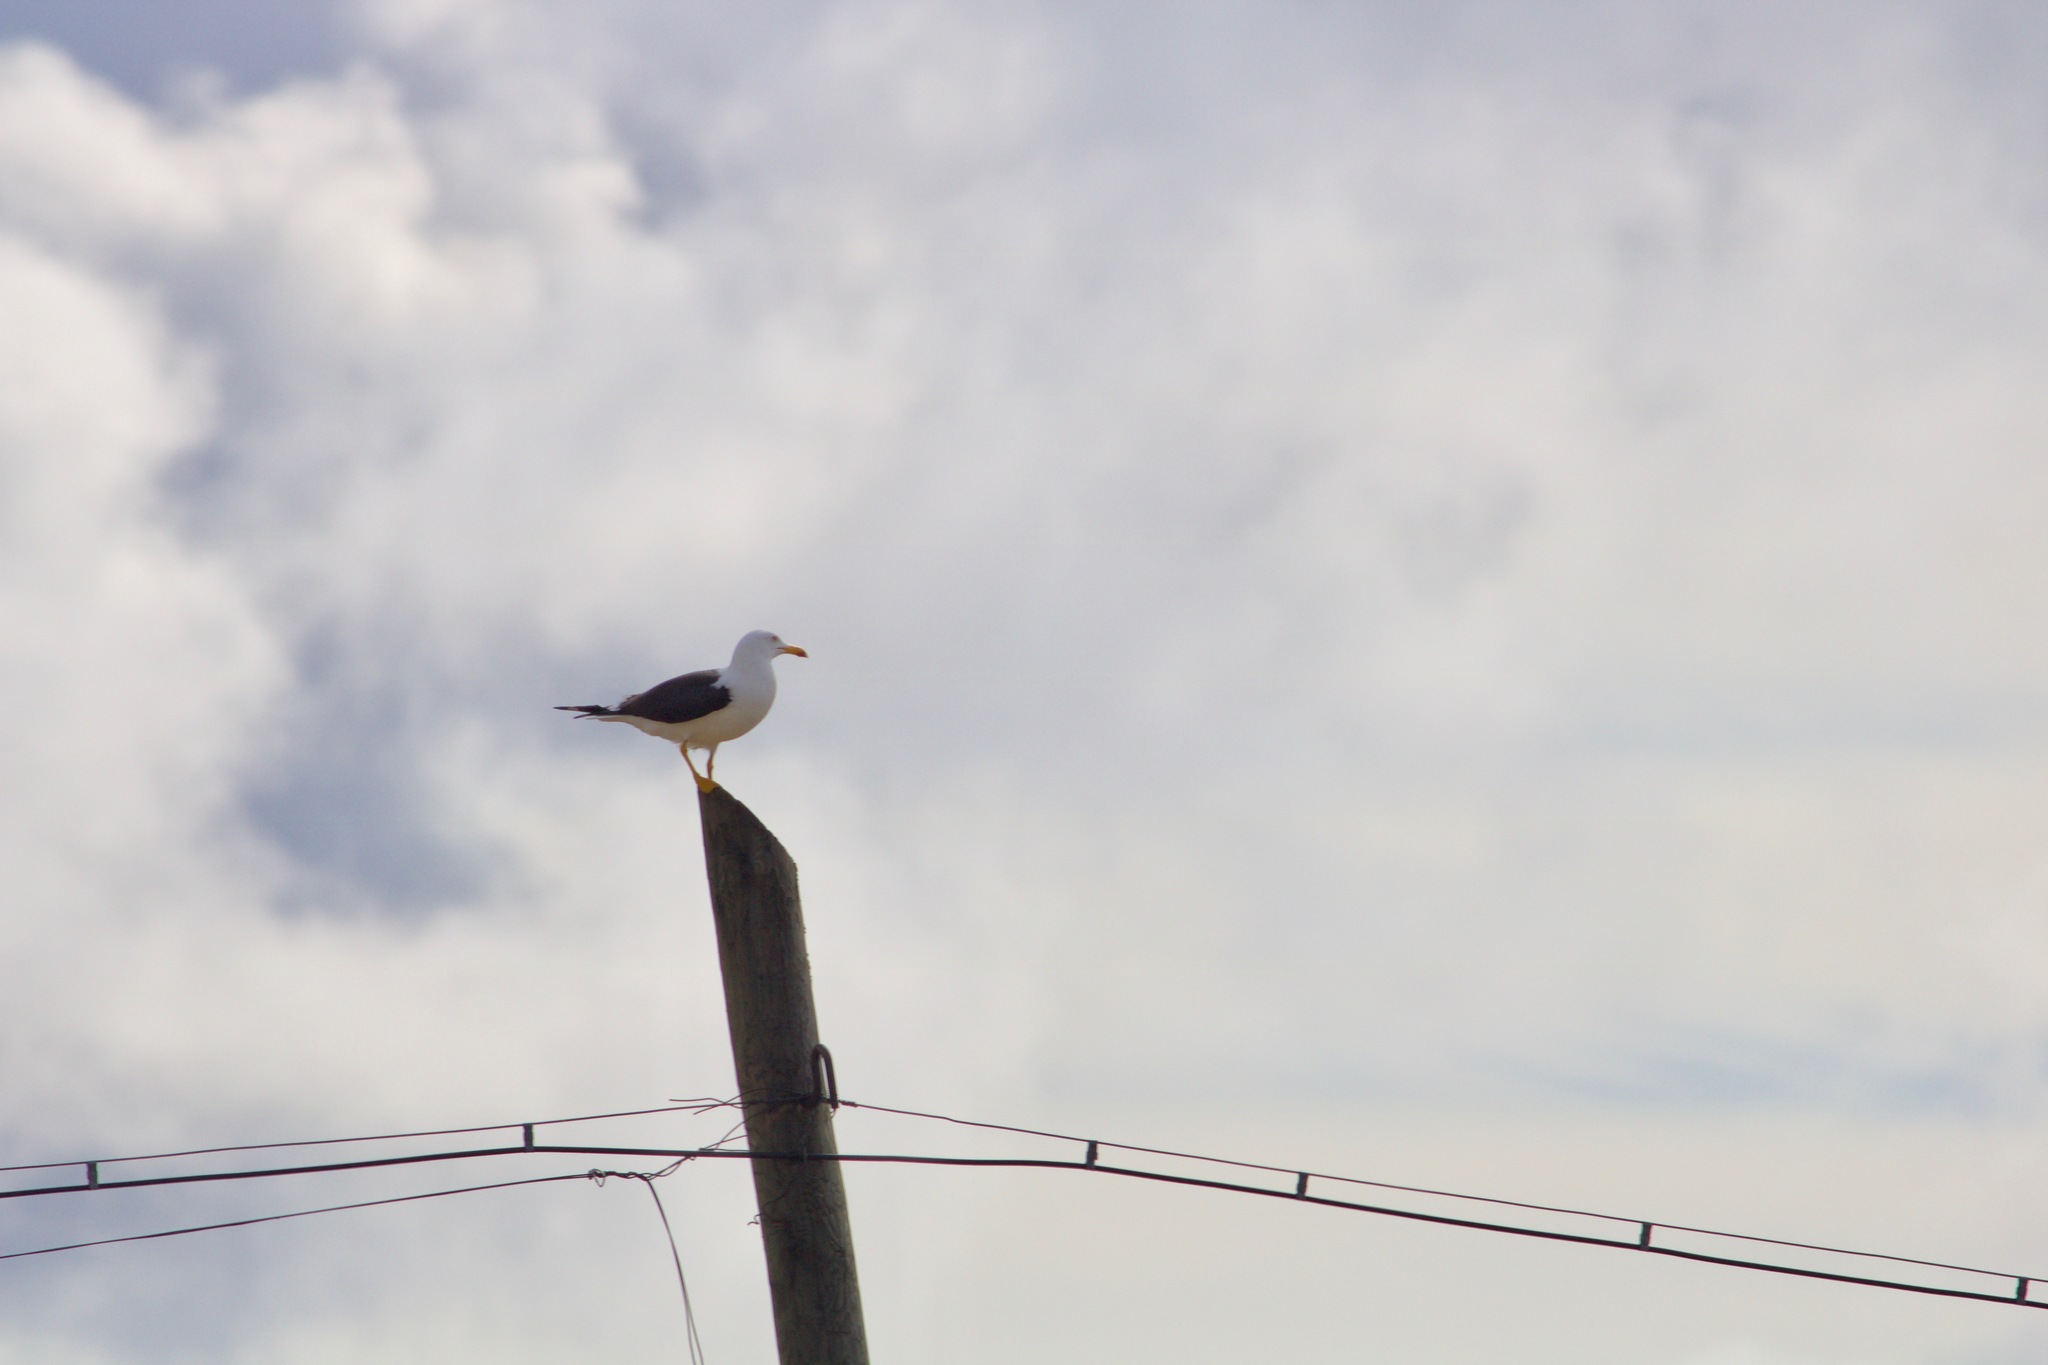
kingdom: Animalia
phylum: Chordata
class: Aves
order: Charadriiformes
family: Laridae
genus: Larus
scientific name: Larus fuscus
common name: Lesser black-backed gull
